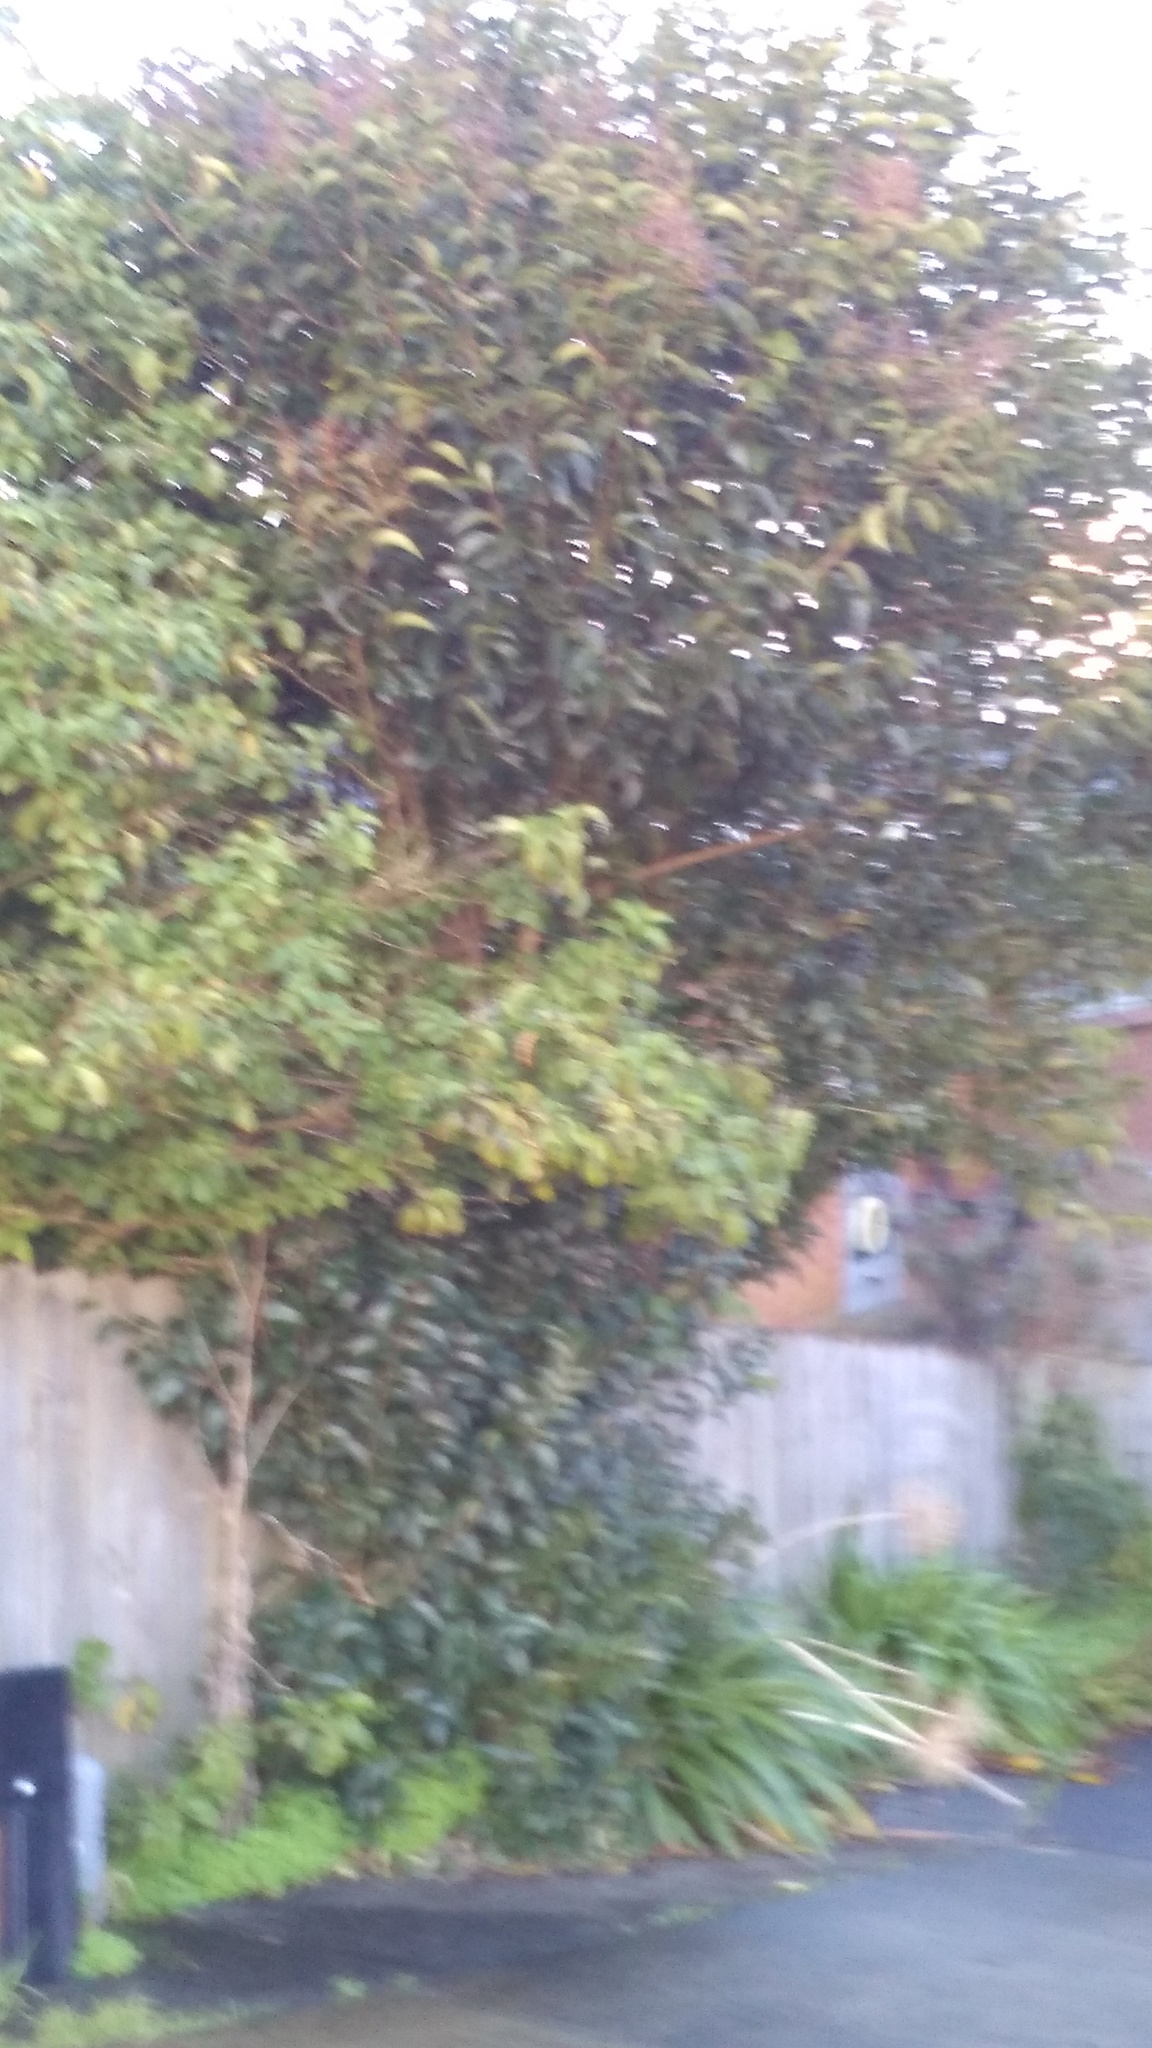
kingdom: Plantae
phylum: Tracheophyta
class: Magnoliopsida
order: Lamiales
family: Oleaceae
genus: Ligustrum
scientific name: Ligustrum lucidum
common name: Glossy privet
